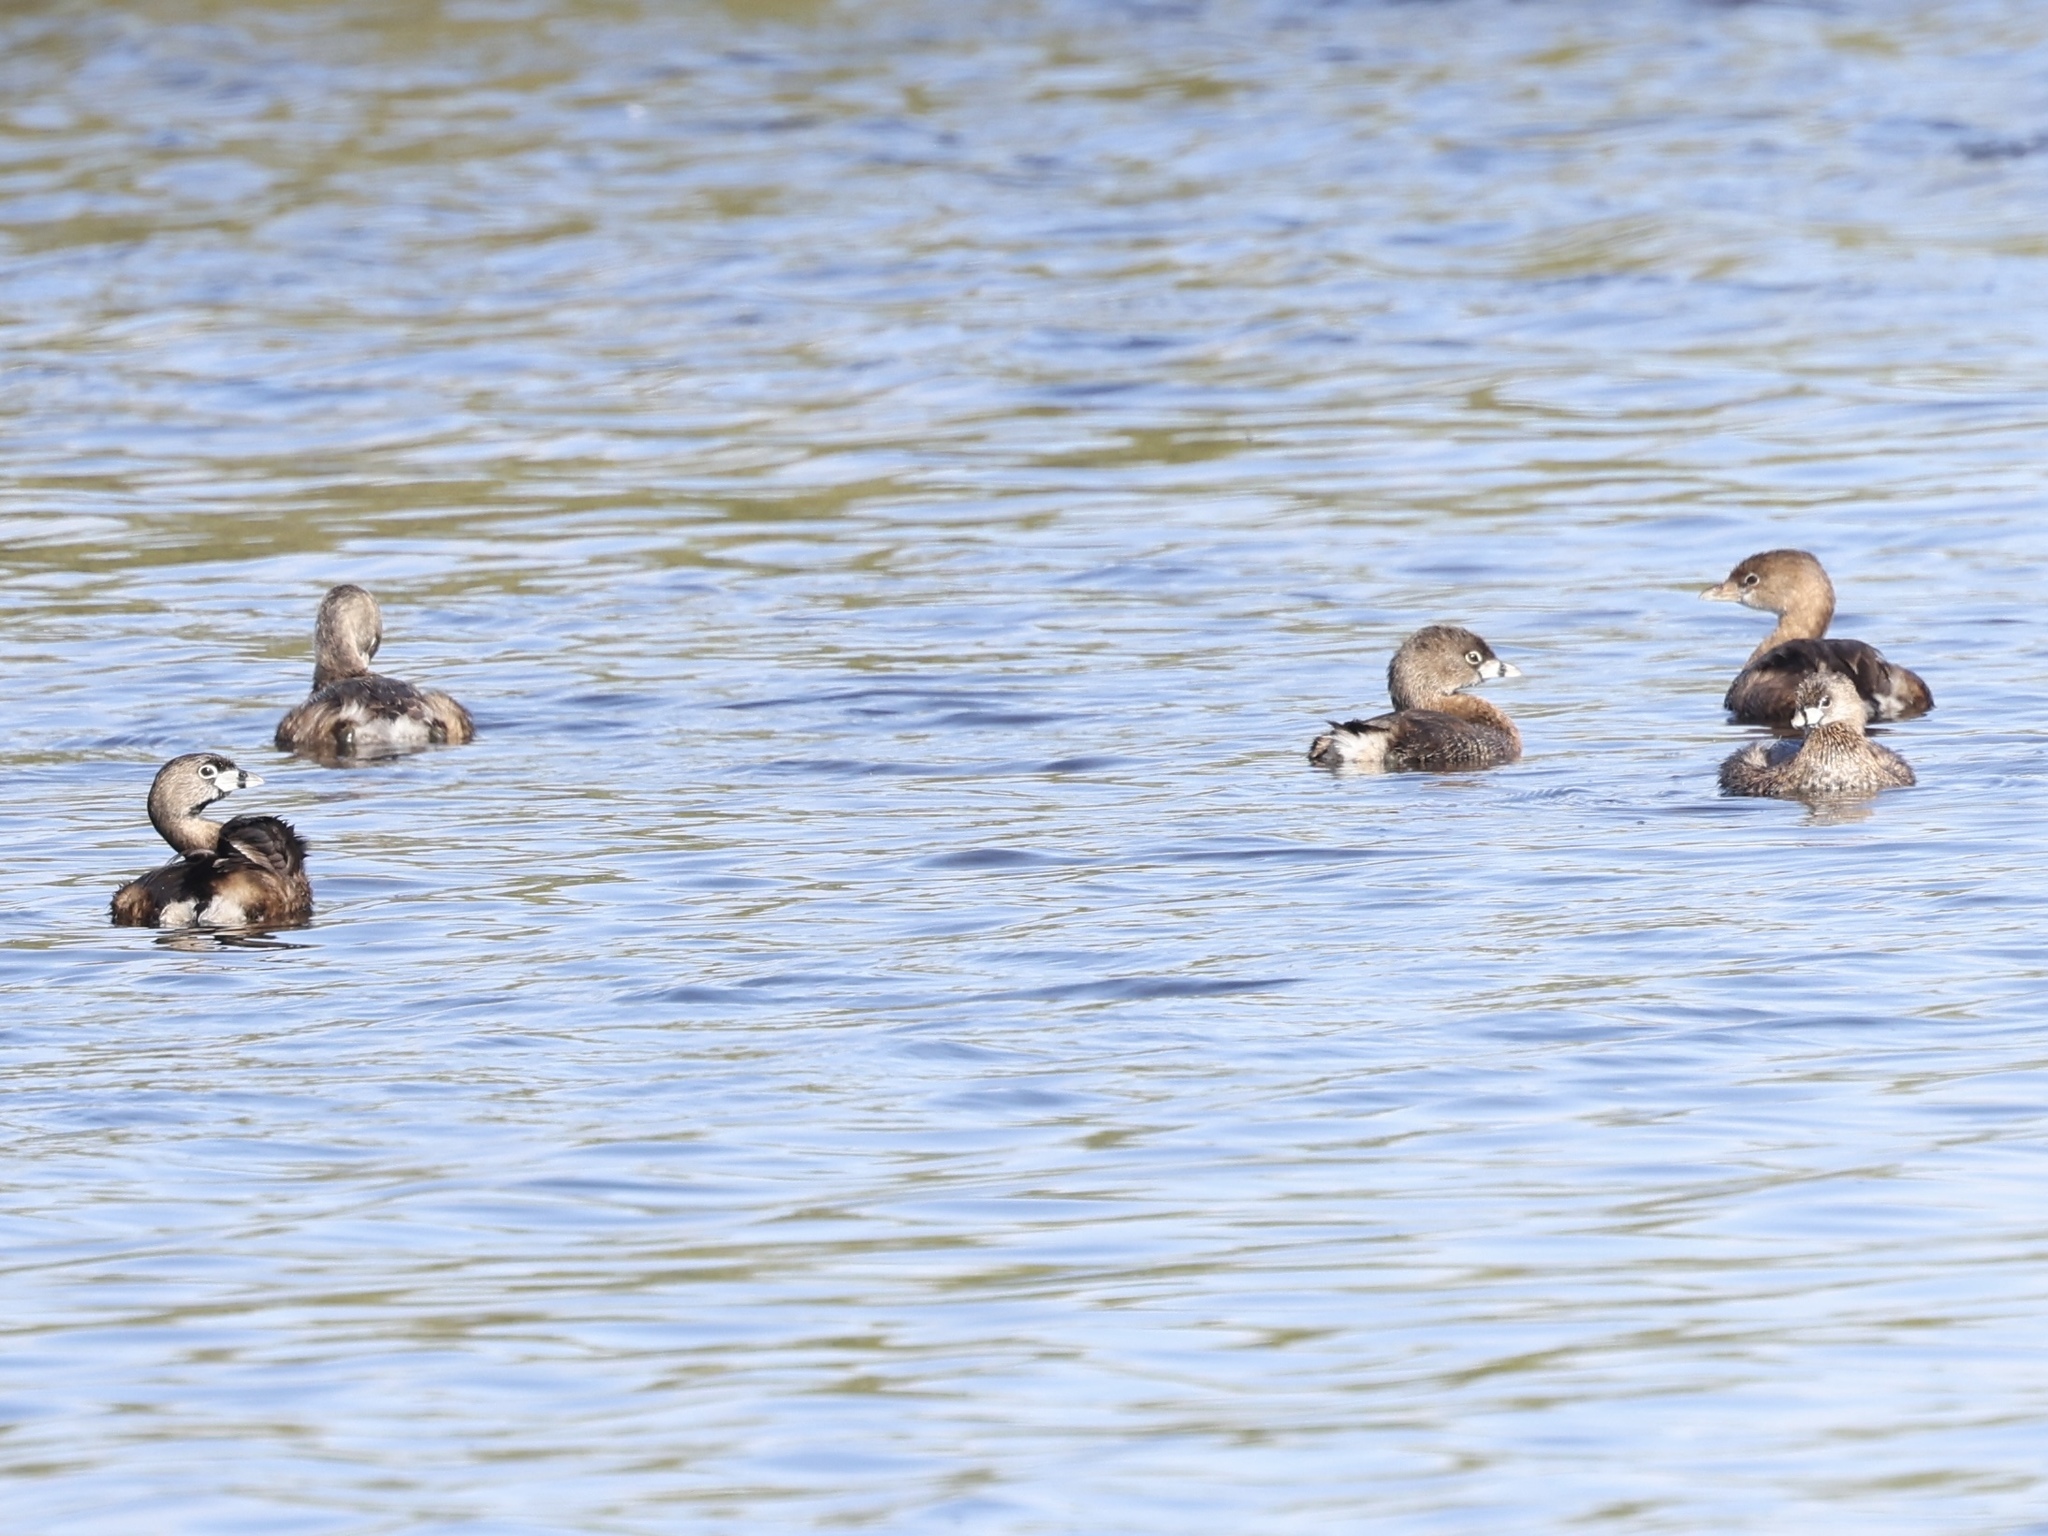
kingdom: Animalia
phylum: Chordata
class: Aves
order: Podicipediformes
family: Podicipedidae
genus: Podilymbus
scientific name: Podilymbus podiceps
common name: Pied-billed grebe
